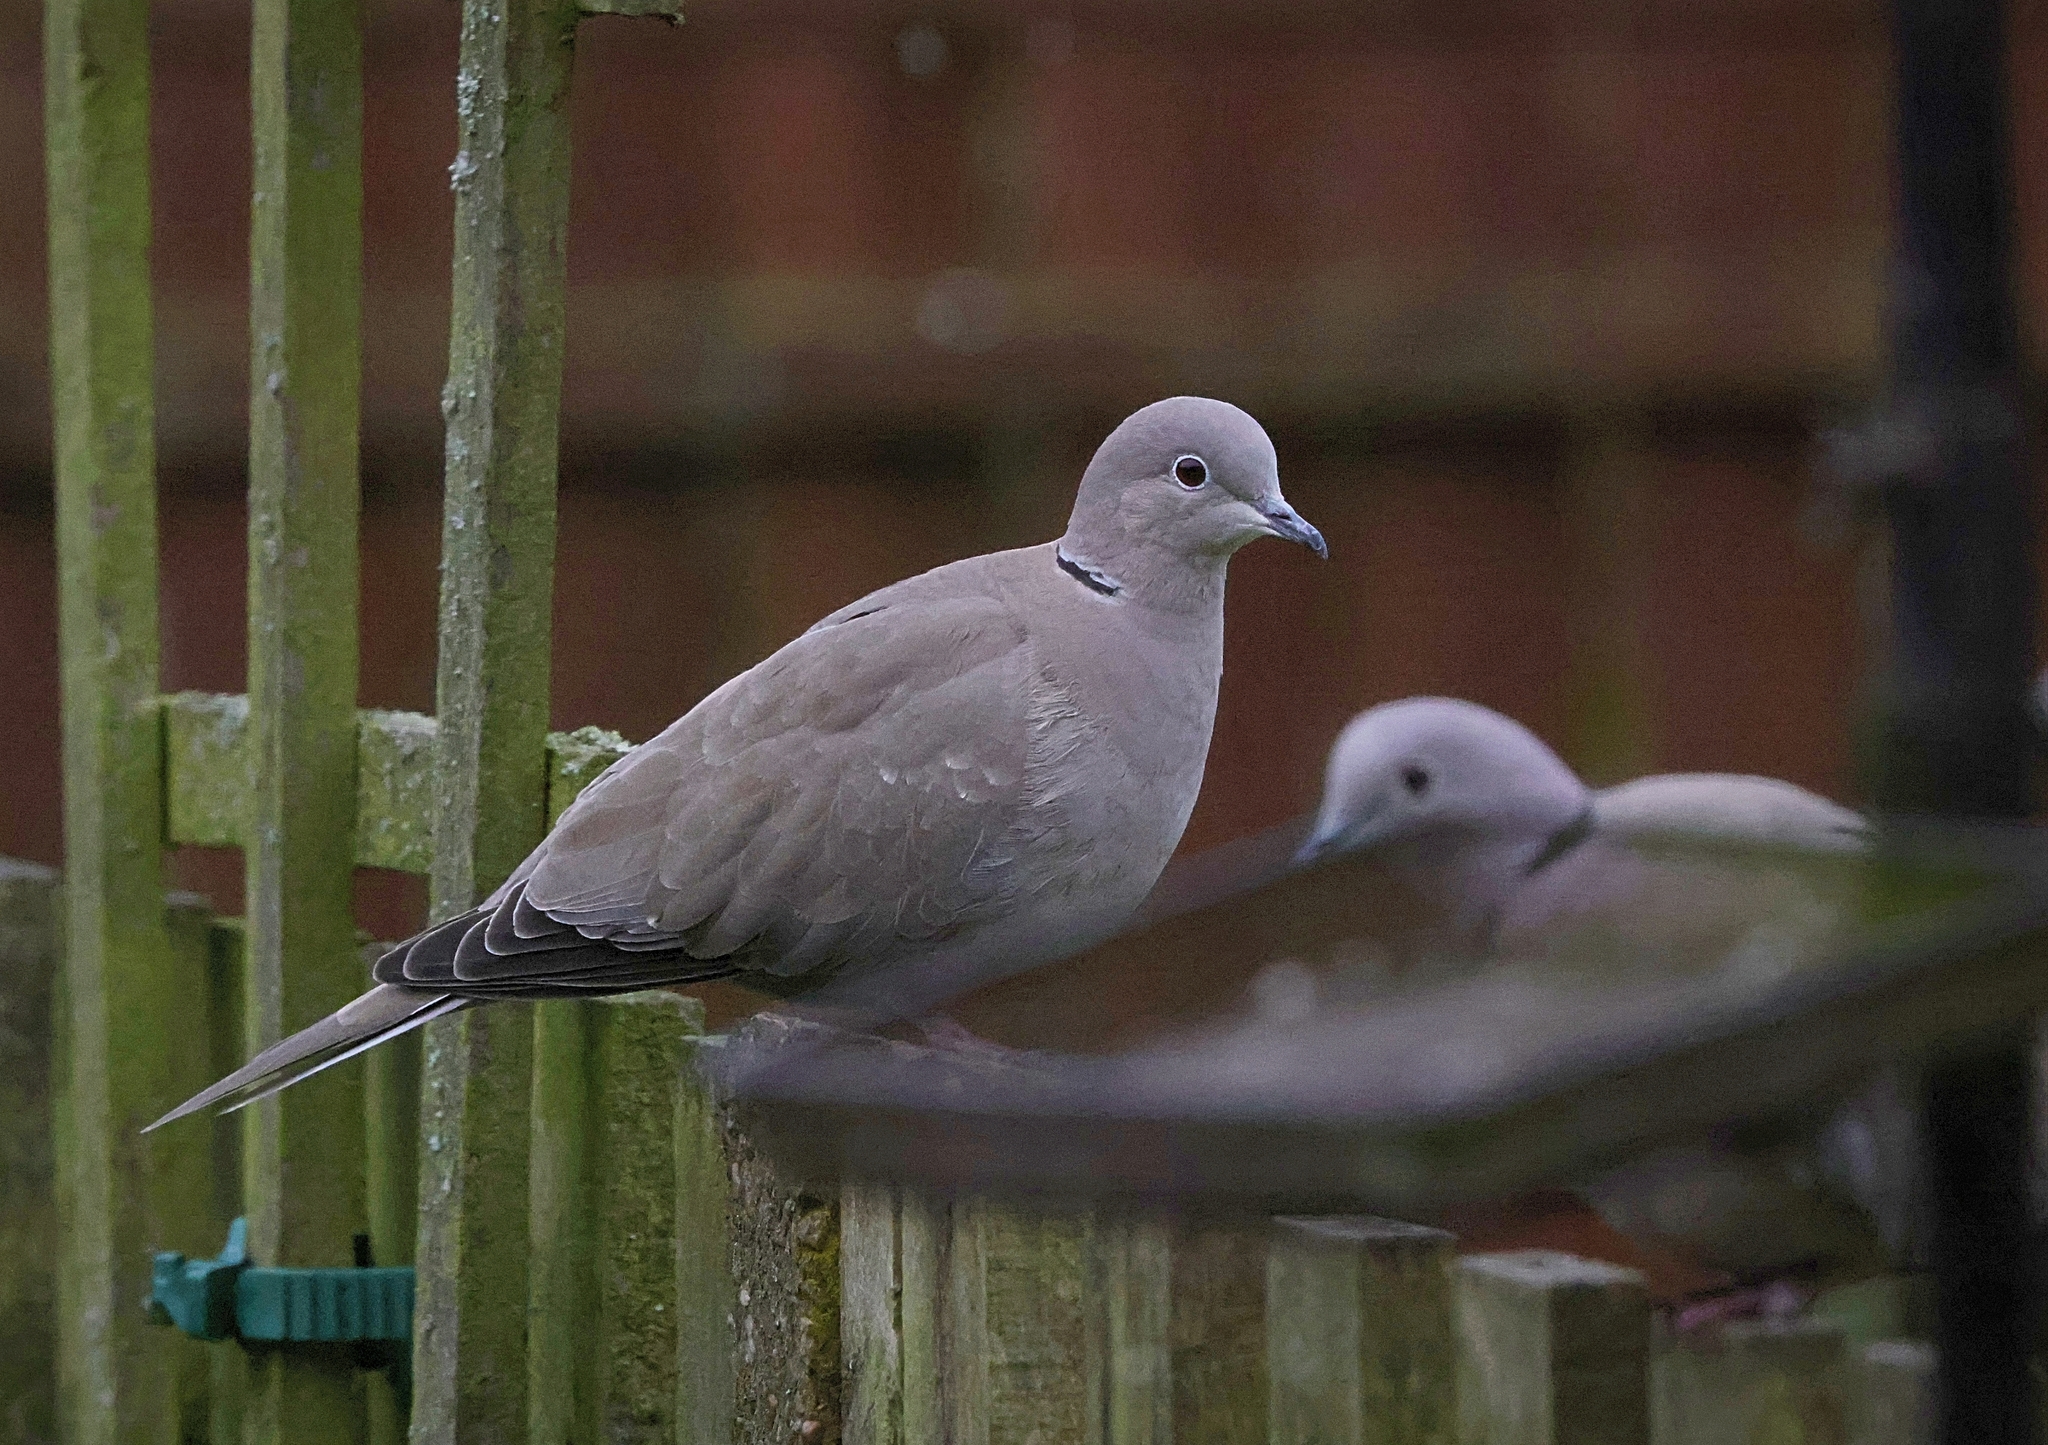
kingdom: Animalia
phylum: Chordata
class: Aves
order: Columbiformes
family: Columbidae
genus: Streptopelia
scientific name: Streptopelia decaocto
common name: Eurasian collared dove
